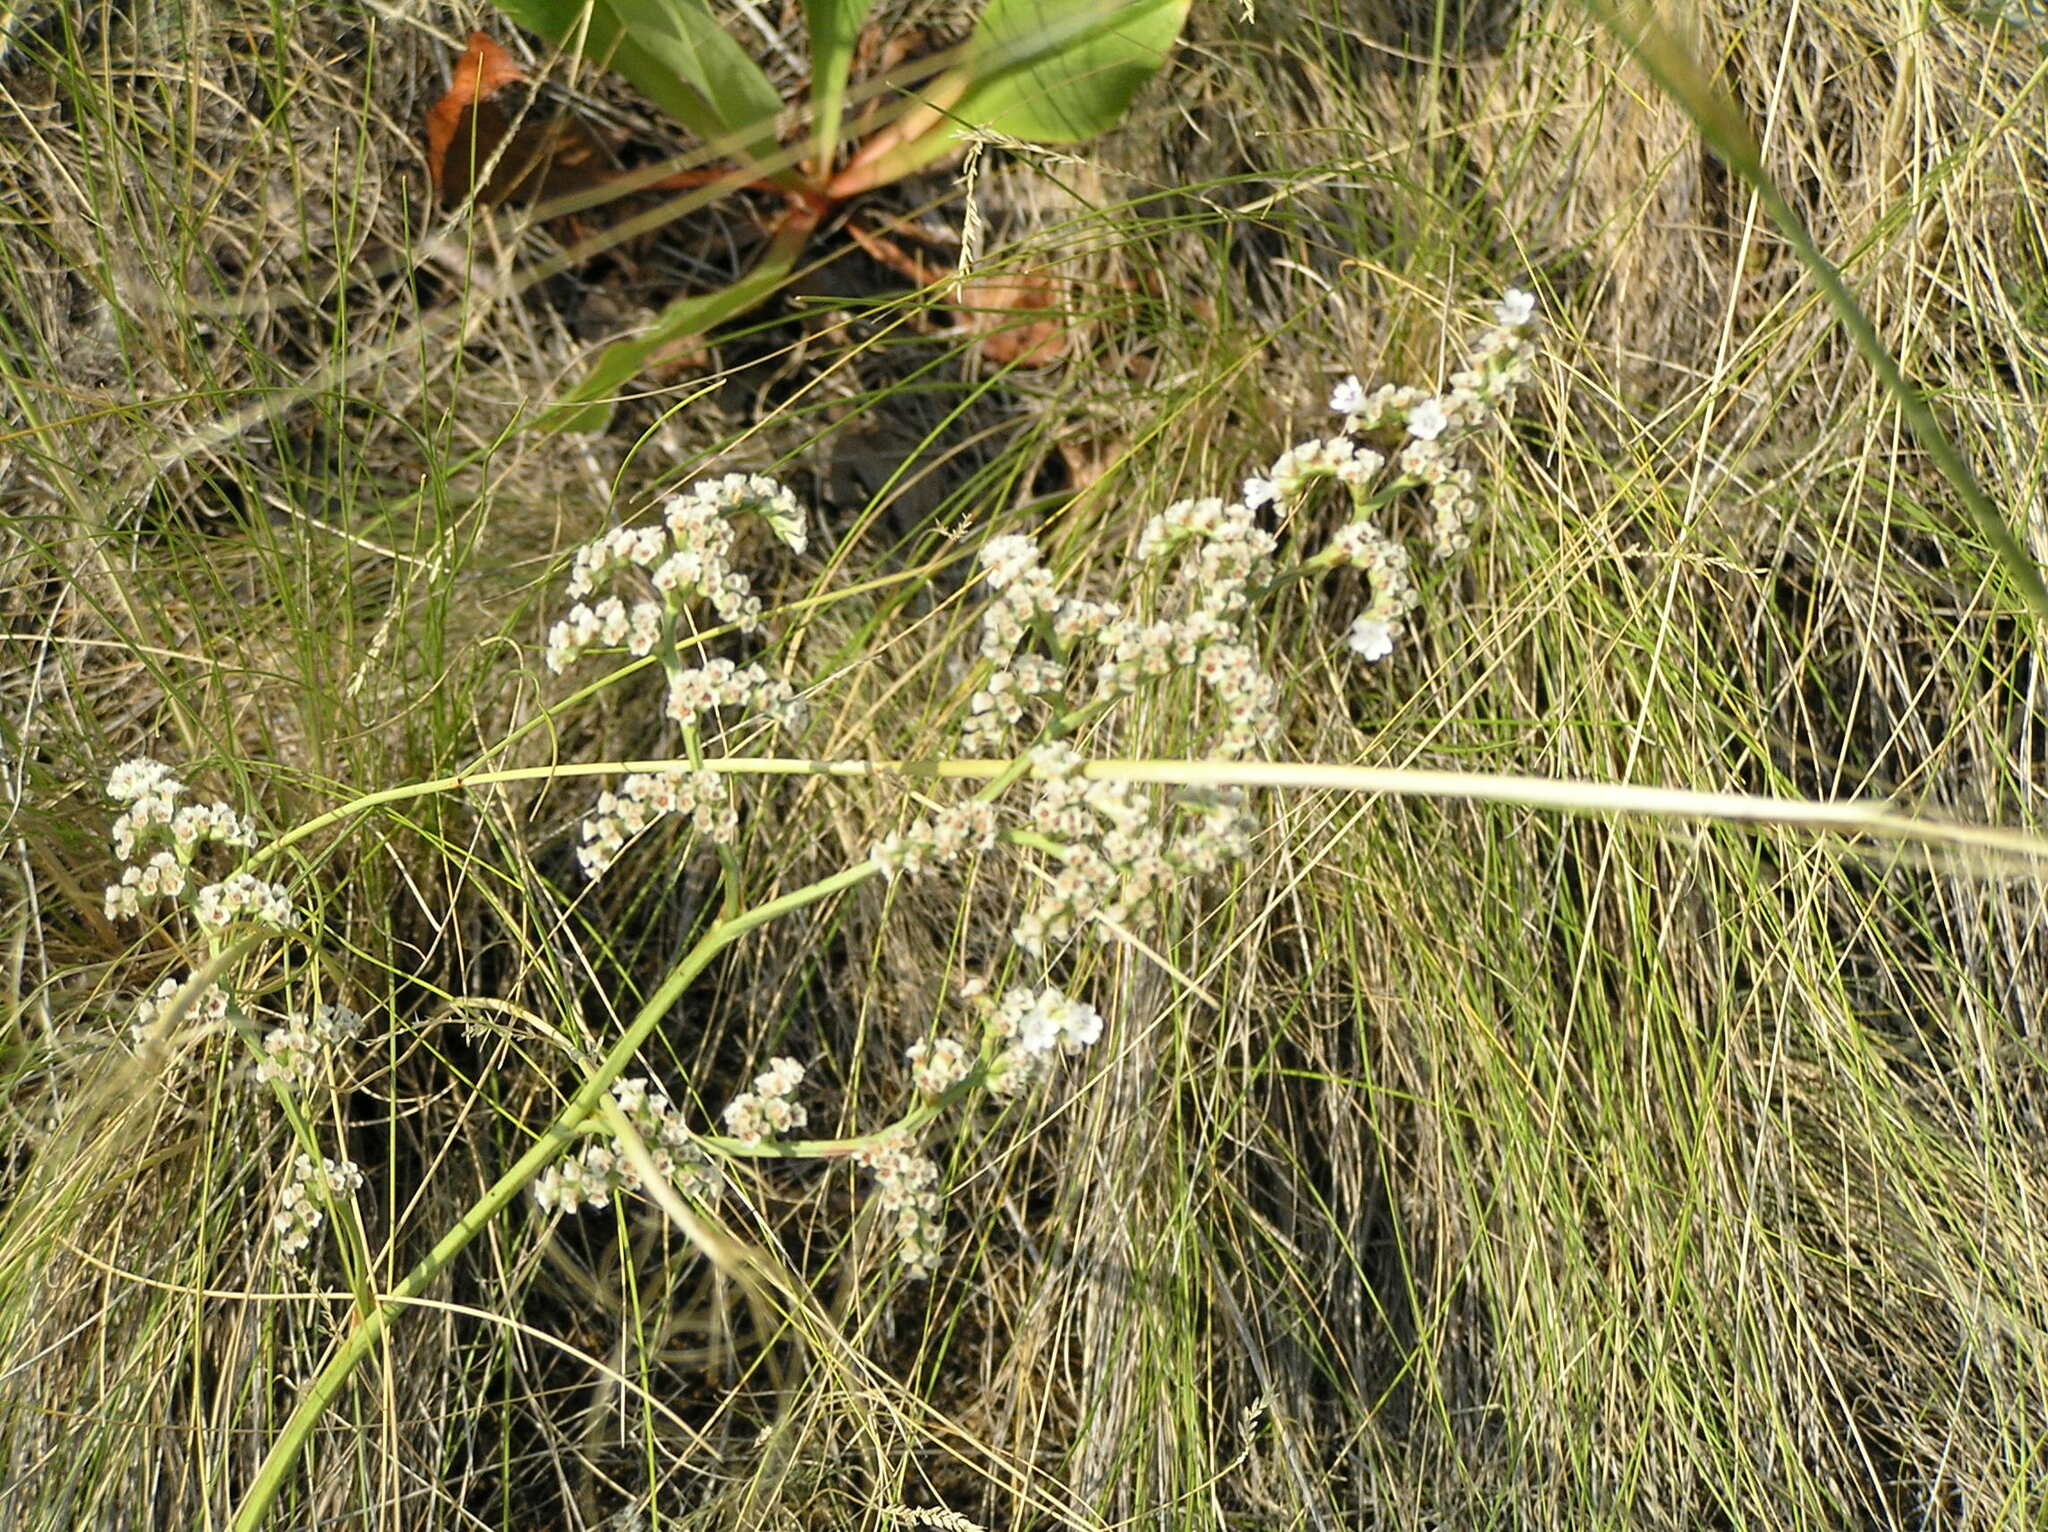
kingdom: Plantae
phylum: Tracheophyta
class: Magnoliopsida
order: Caryophyllales
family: Plumbaginaceae
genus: Goniolimon
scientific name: Goniolimon tataricum
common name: Statice
